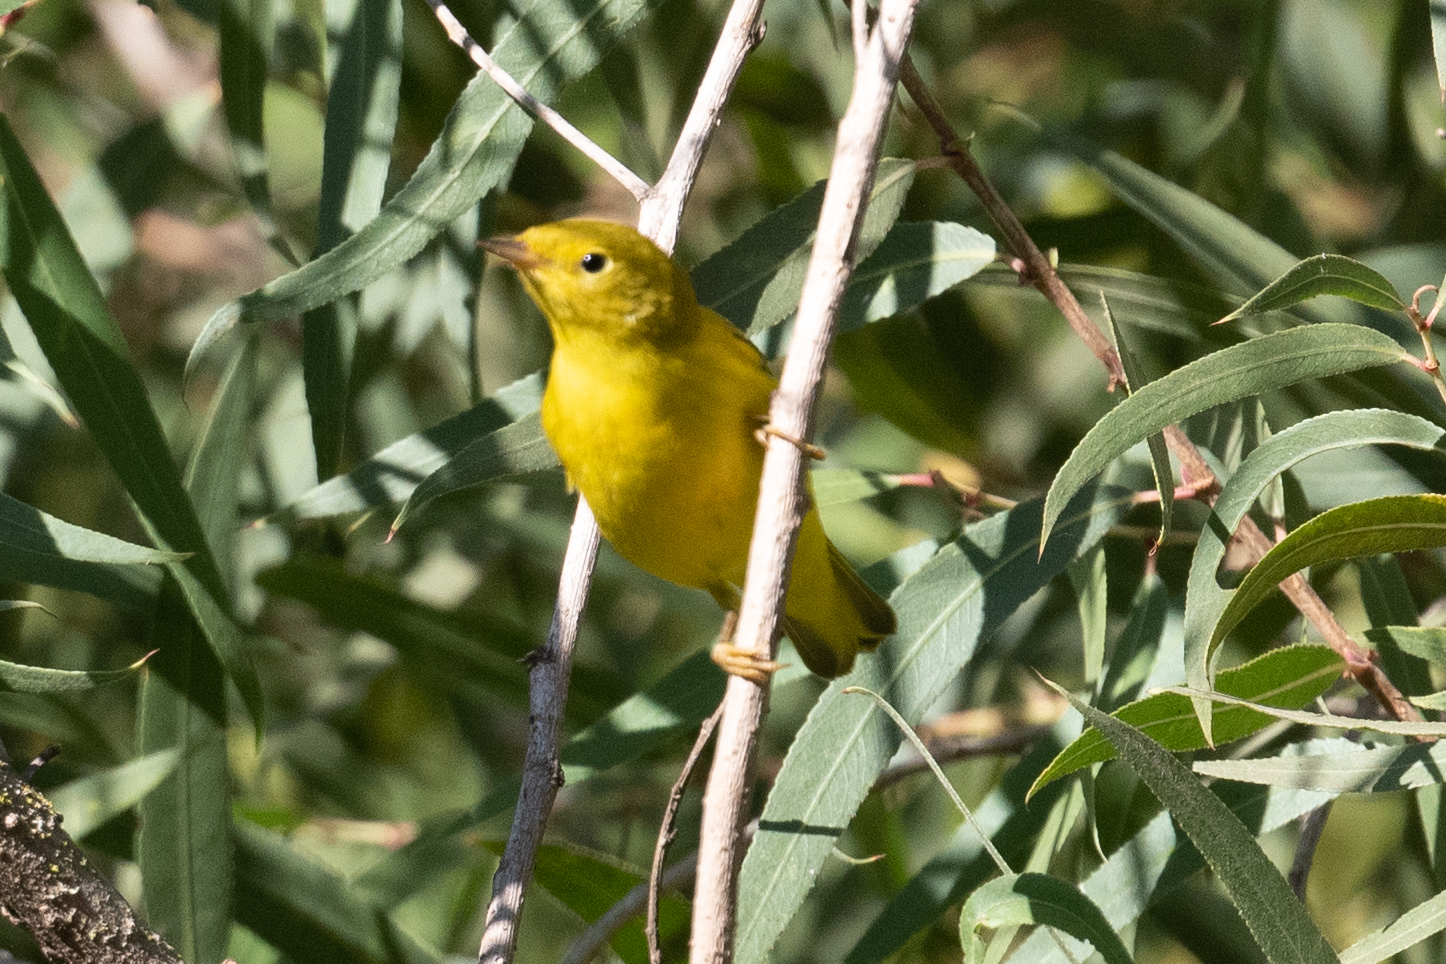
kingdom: Animalia
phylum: Chordata
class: Aves
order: Passeriformes
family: Parulidae
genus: Setophaga
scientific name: Setophaga petechia
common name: Yellow warbler
